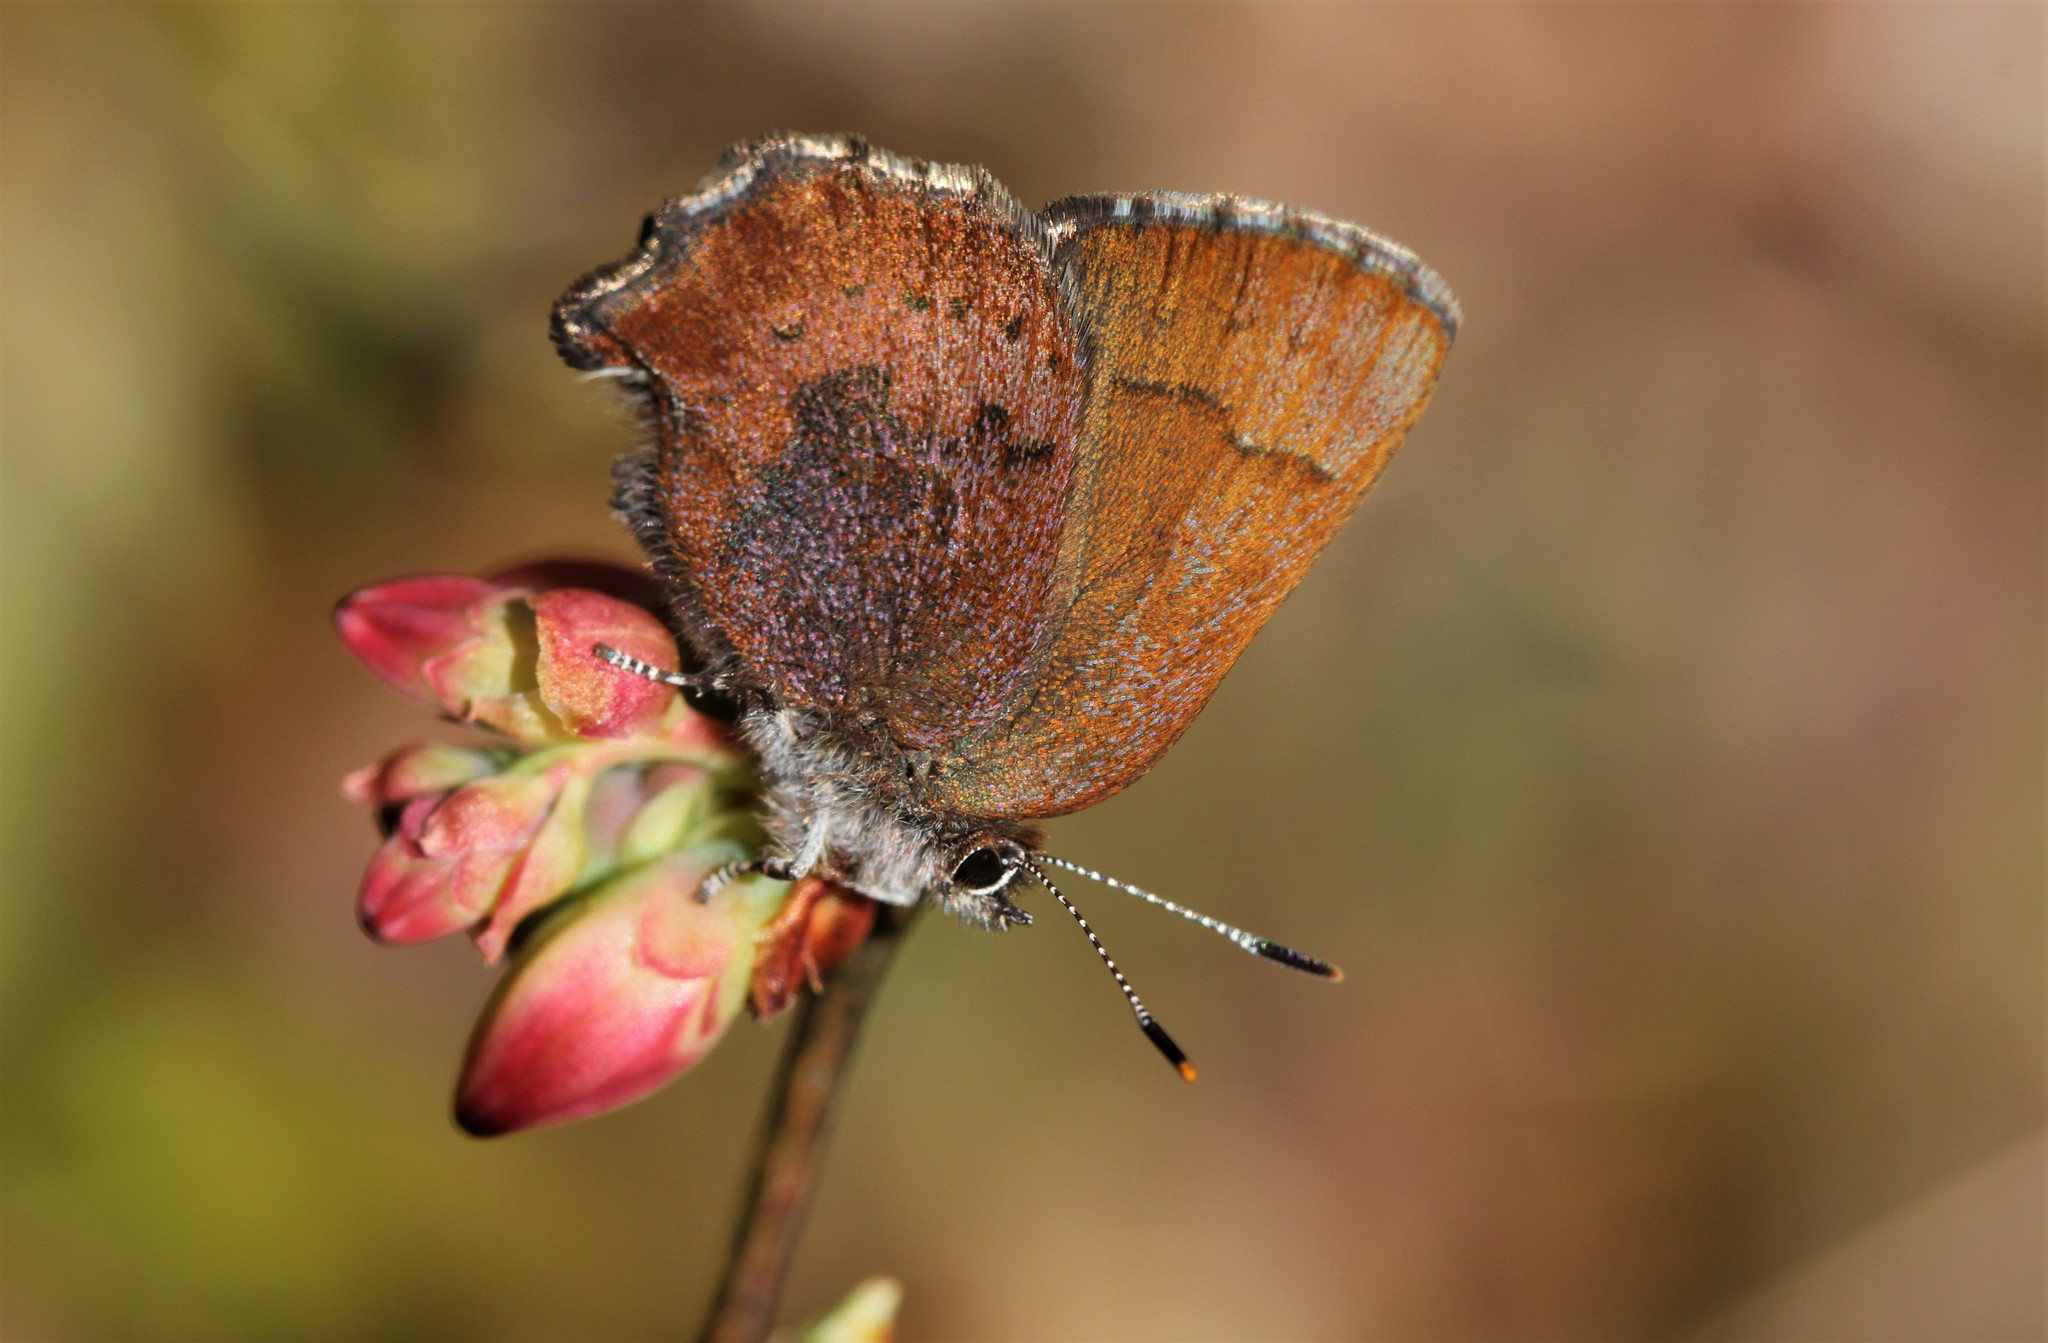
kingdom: Animalia
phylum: Arthropoda
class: Insecta
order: Lepidoptera
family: Lycaenidae
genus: Incisalia
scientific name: Incisalia irioides
